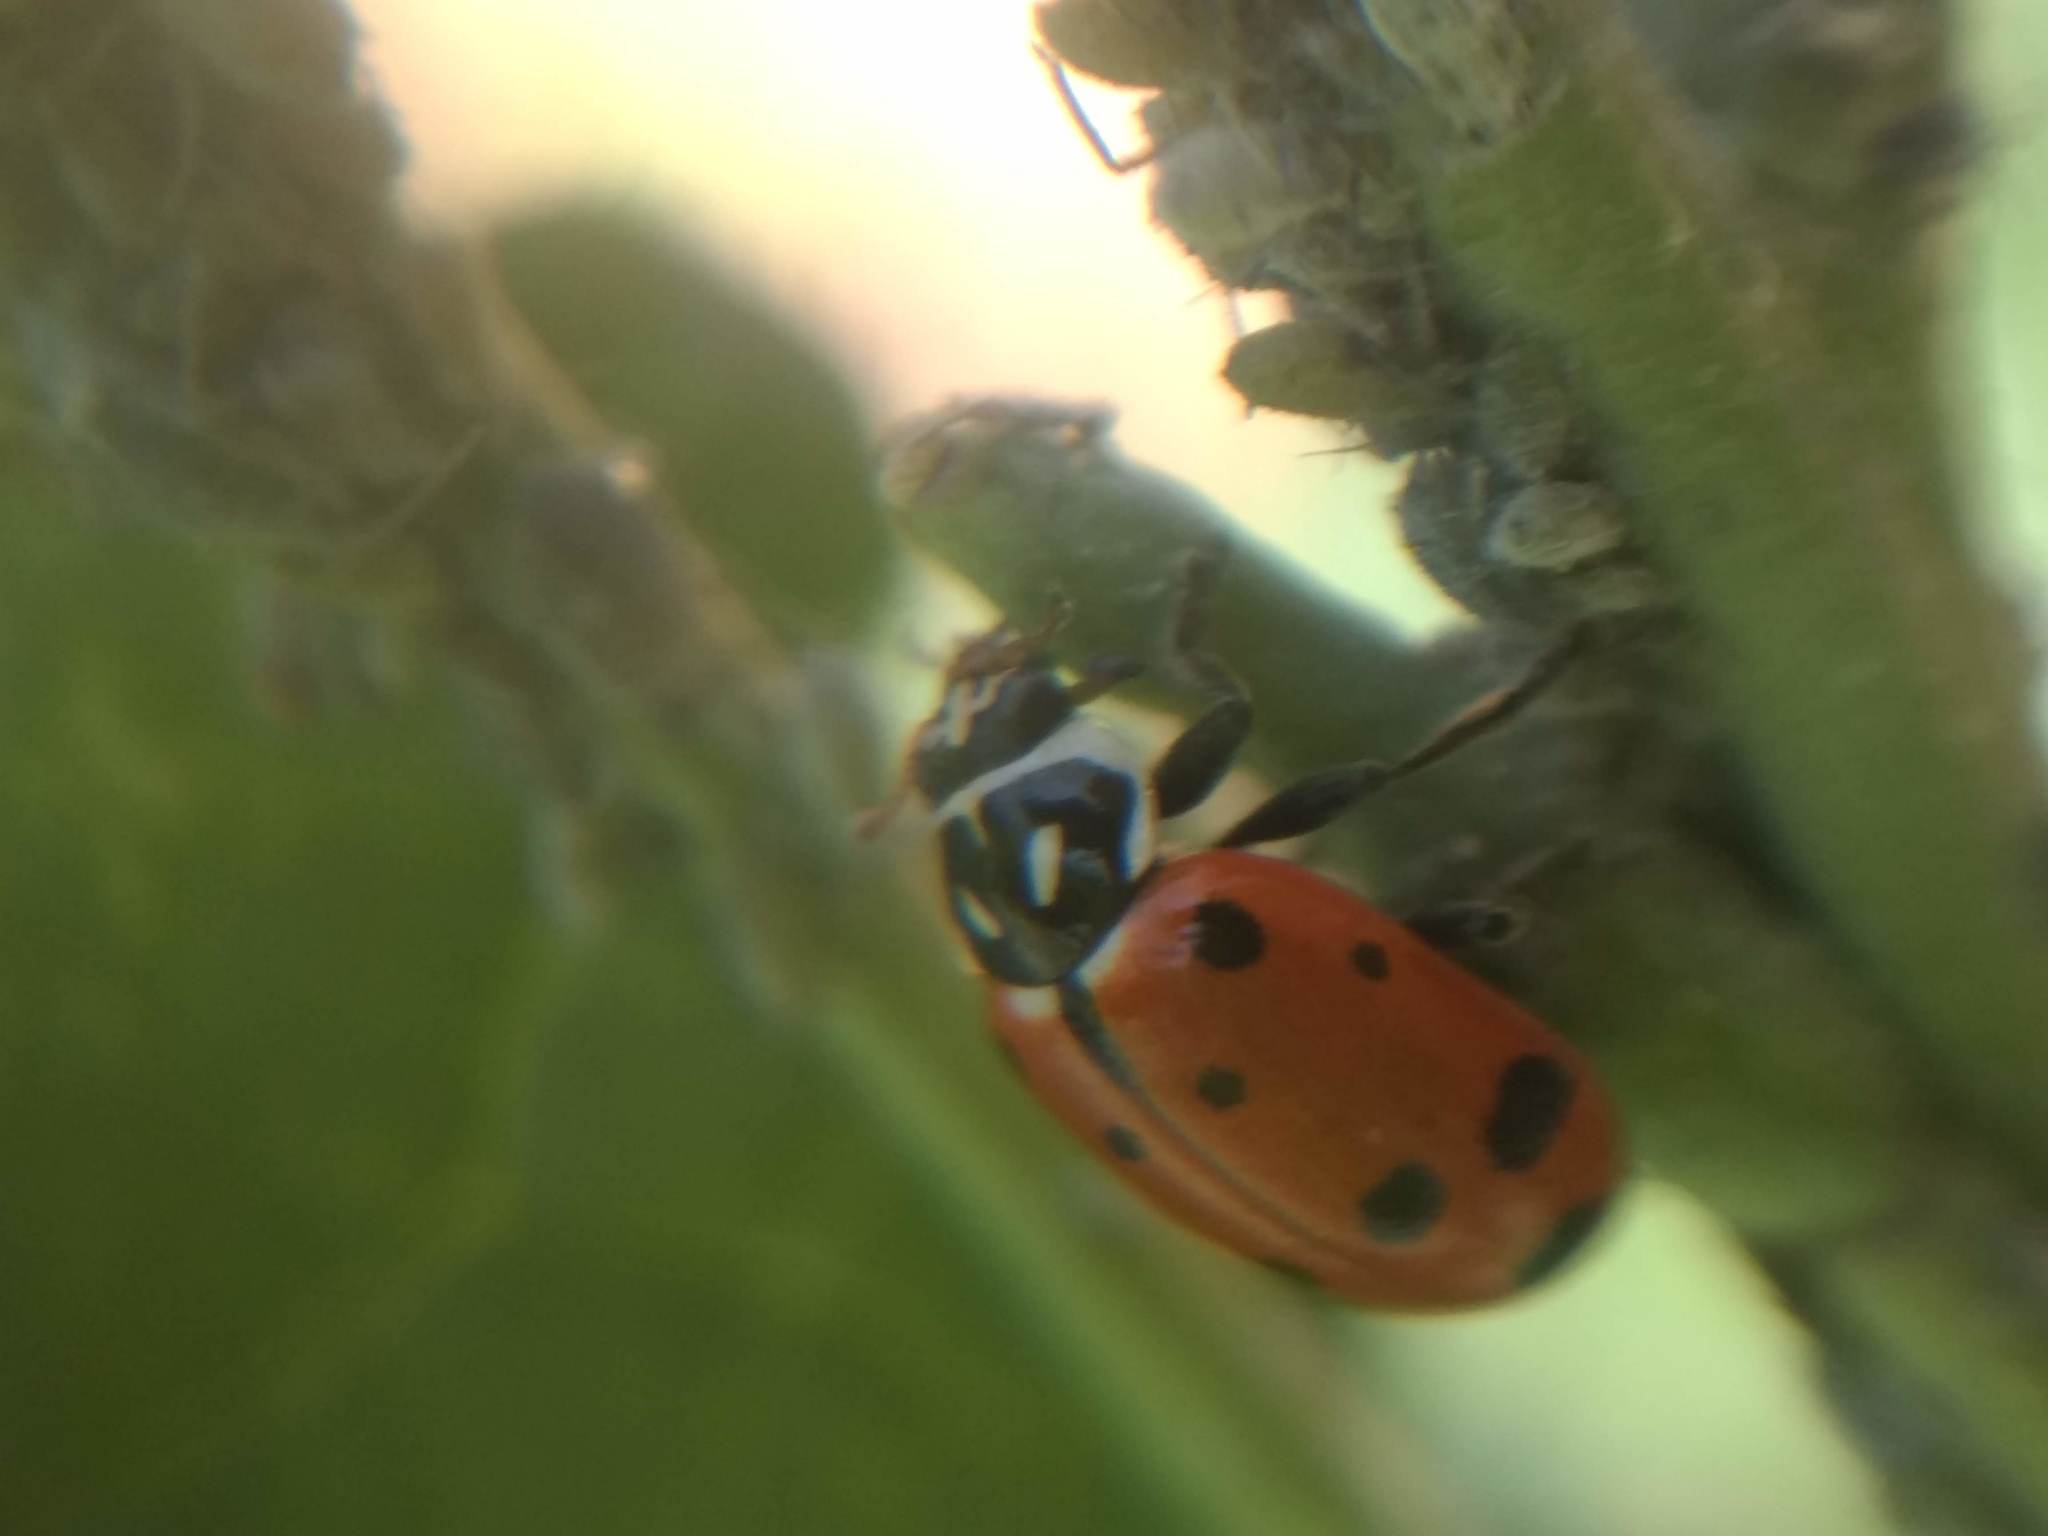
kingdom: Animalia
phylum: Arthropoda
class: Insecta
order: Coleoptera
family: Coccinellidae
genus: Hippodamia
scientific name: Hippodamia convergens
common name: Convergent lady beetle
